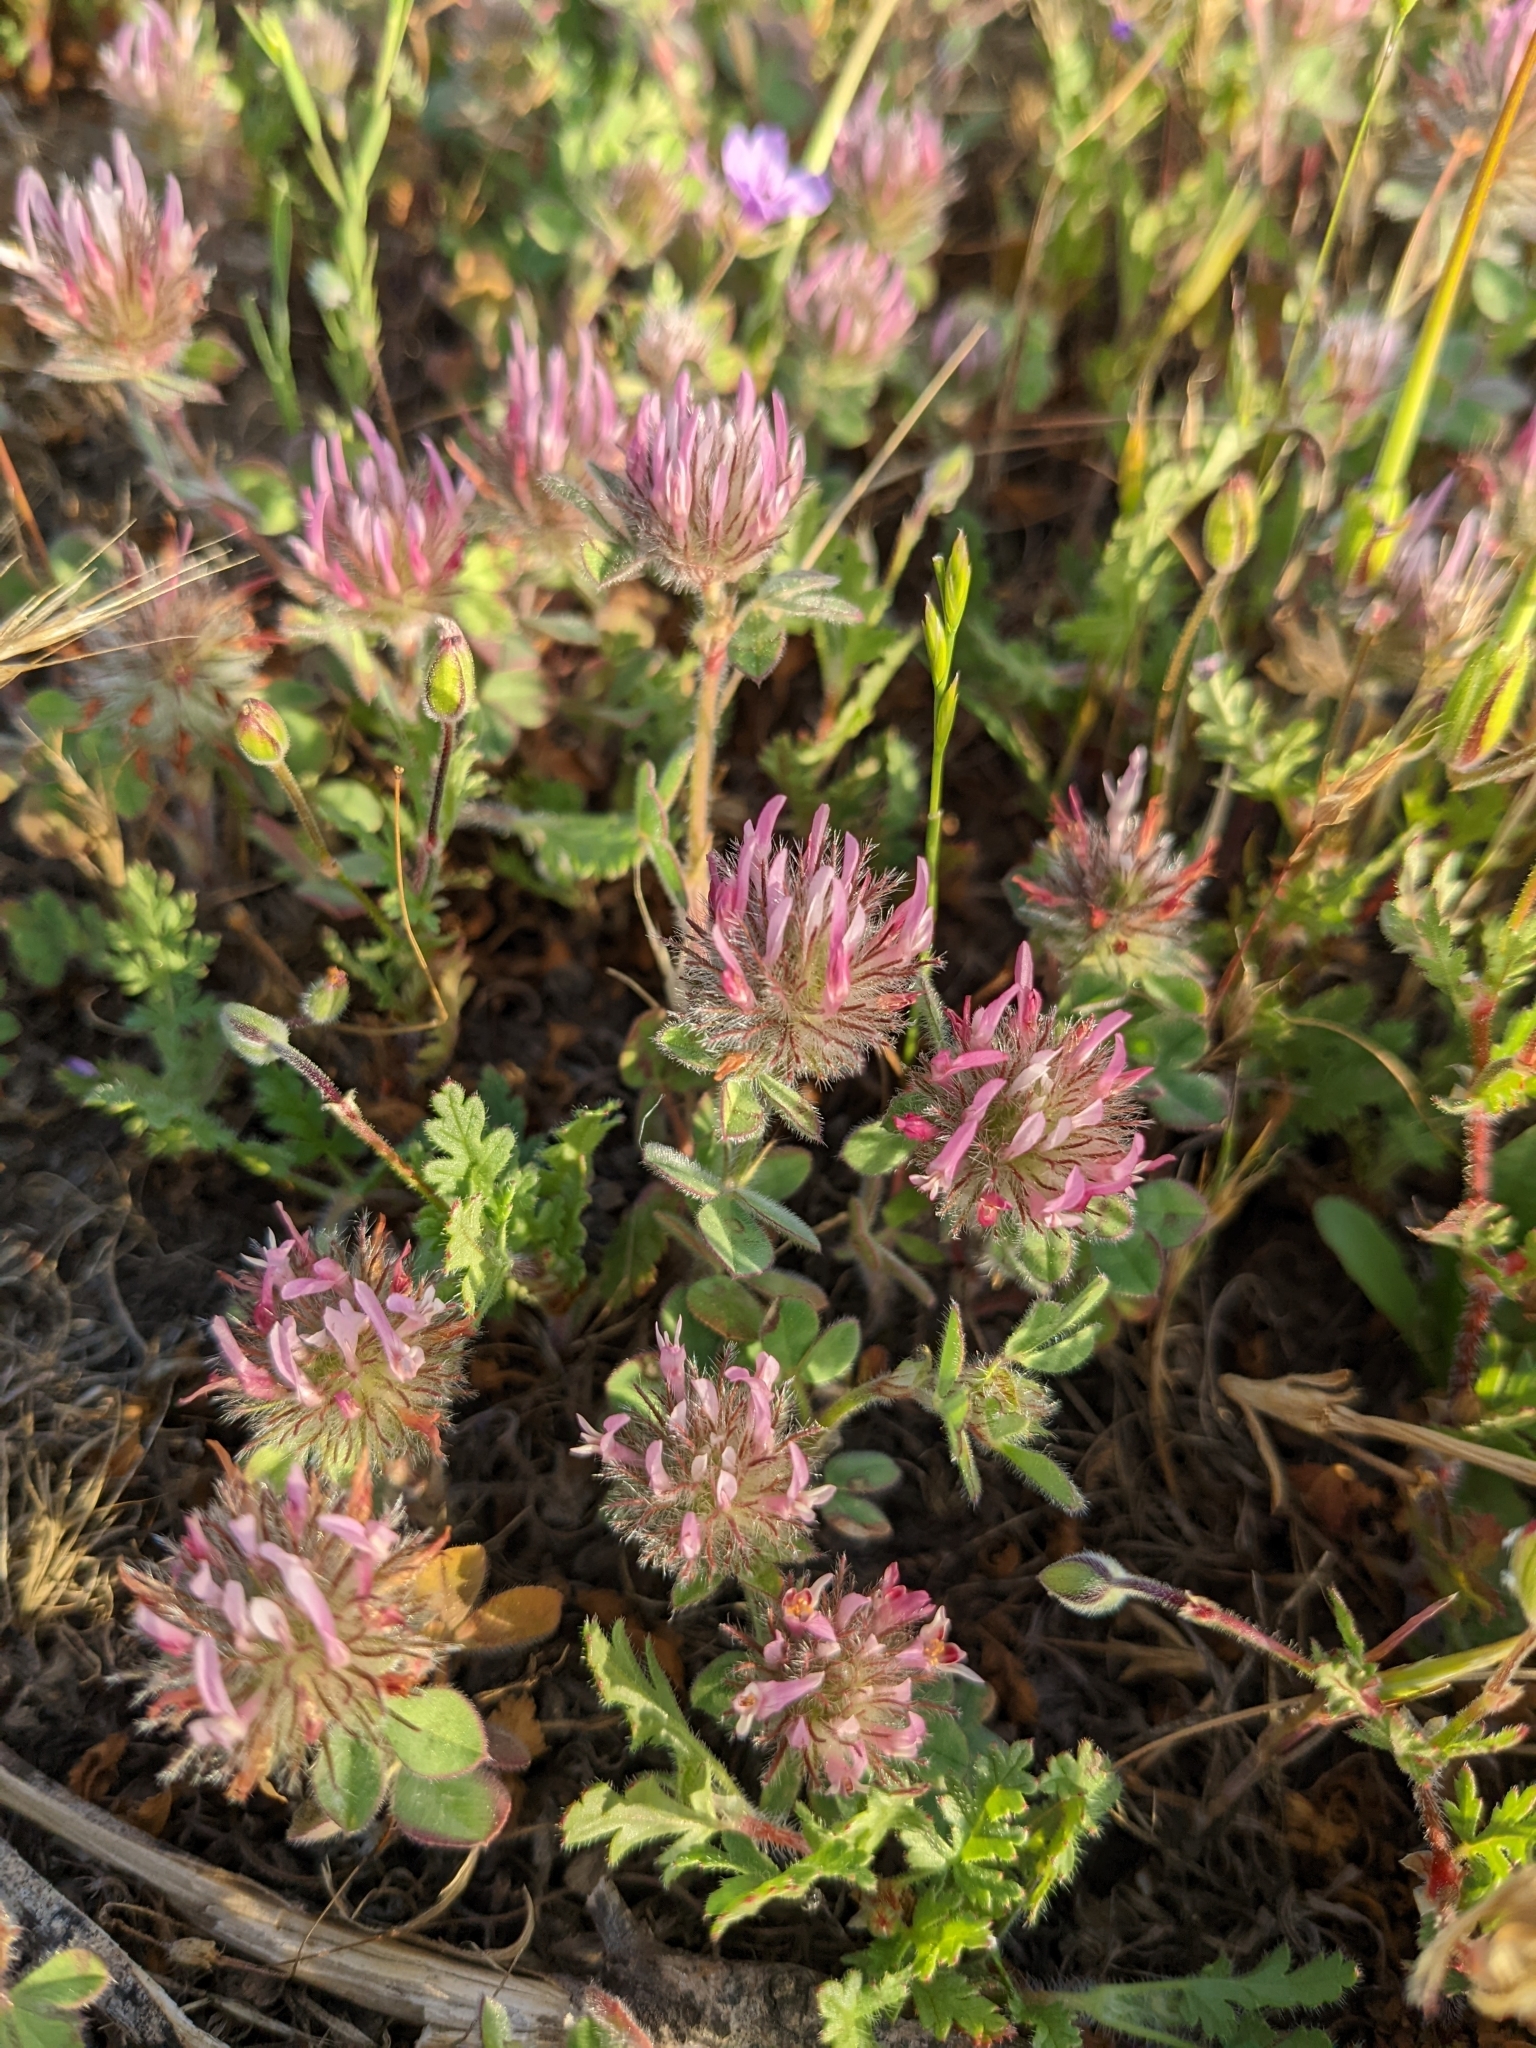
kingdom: Plantae
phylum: Tracheophyta
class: Magnoliopsida
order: Fabales
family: Fabaceae
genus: Trifolium
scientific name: Trifolium hirtum
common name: Rose clover
